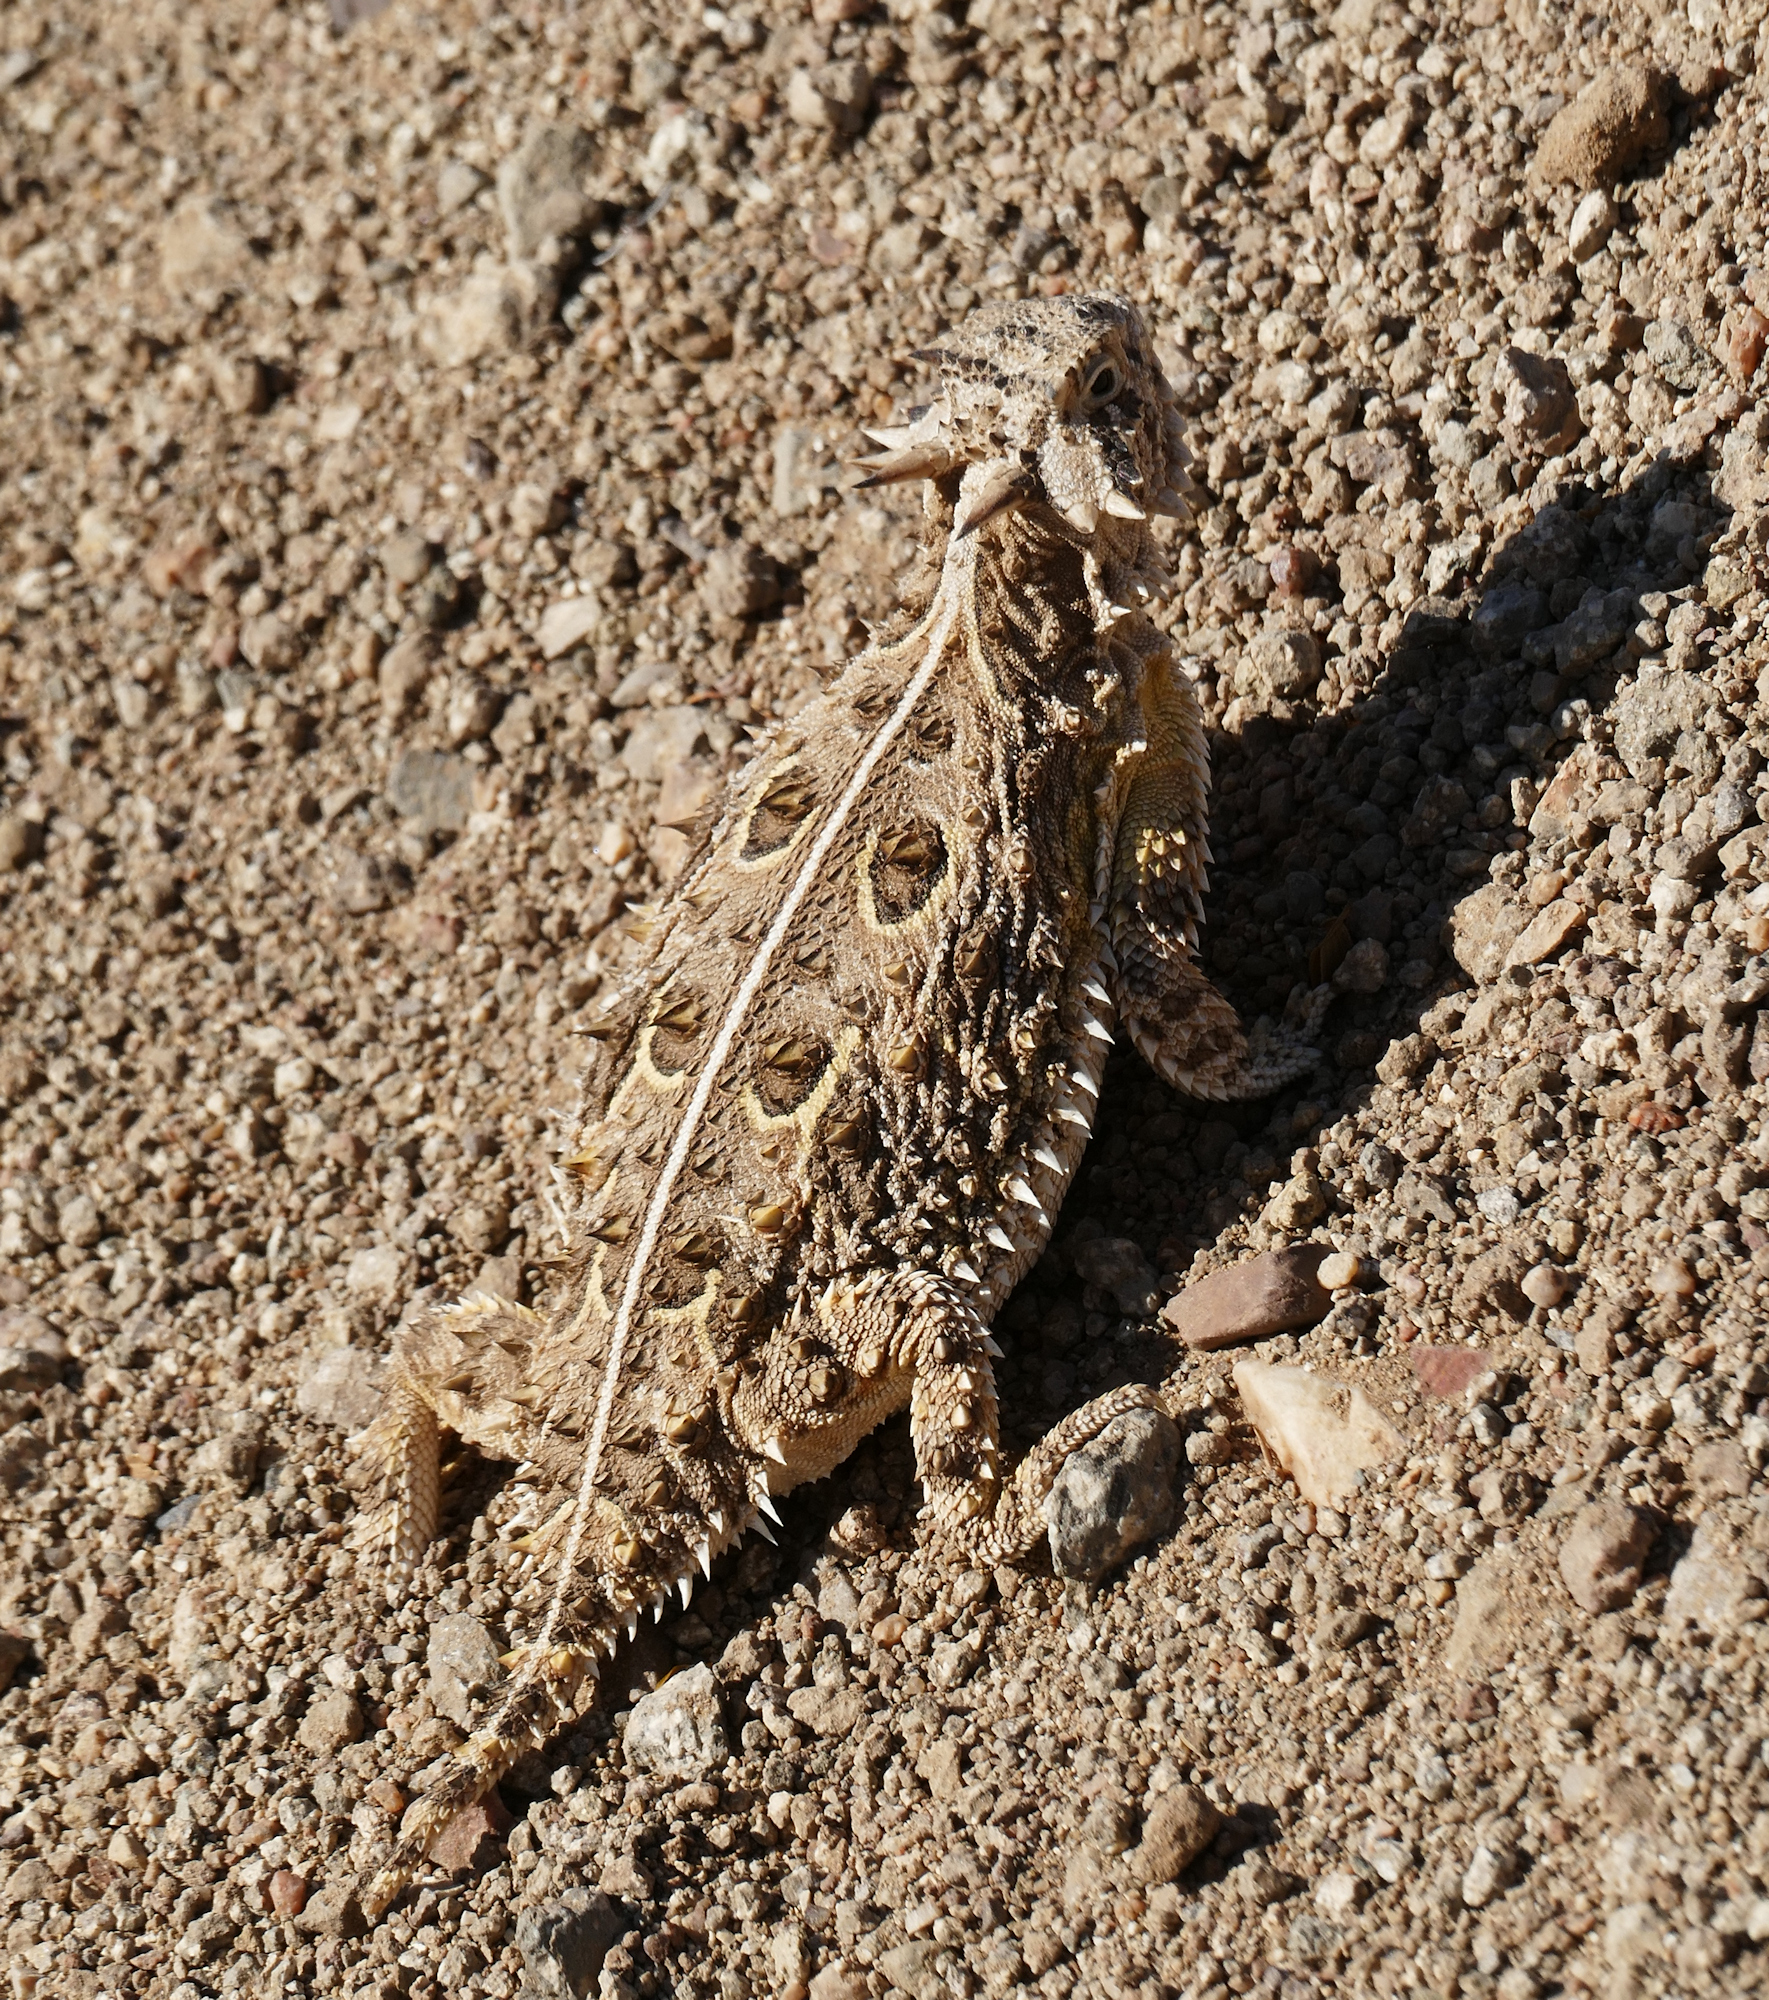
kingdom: Animalia
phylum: Chordata
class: Squamata
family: Phrynosomatidae
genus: Phrynosoma
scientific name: Phrynosoma cornutum
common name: Texas horned lizard
